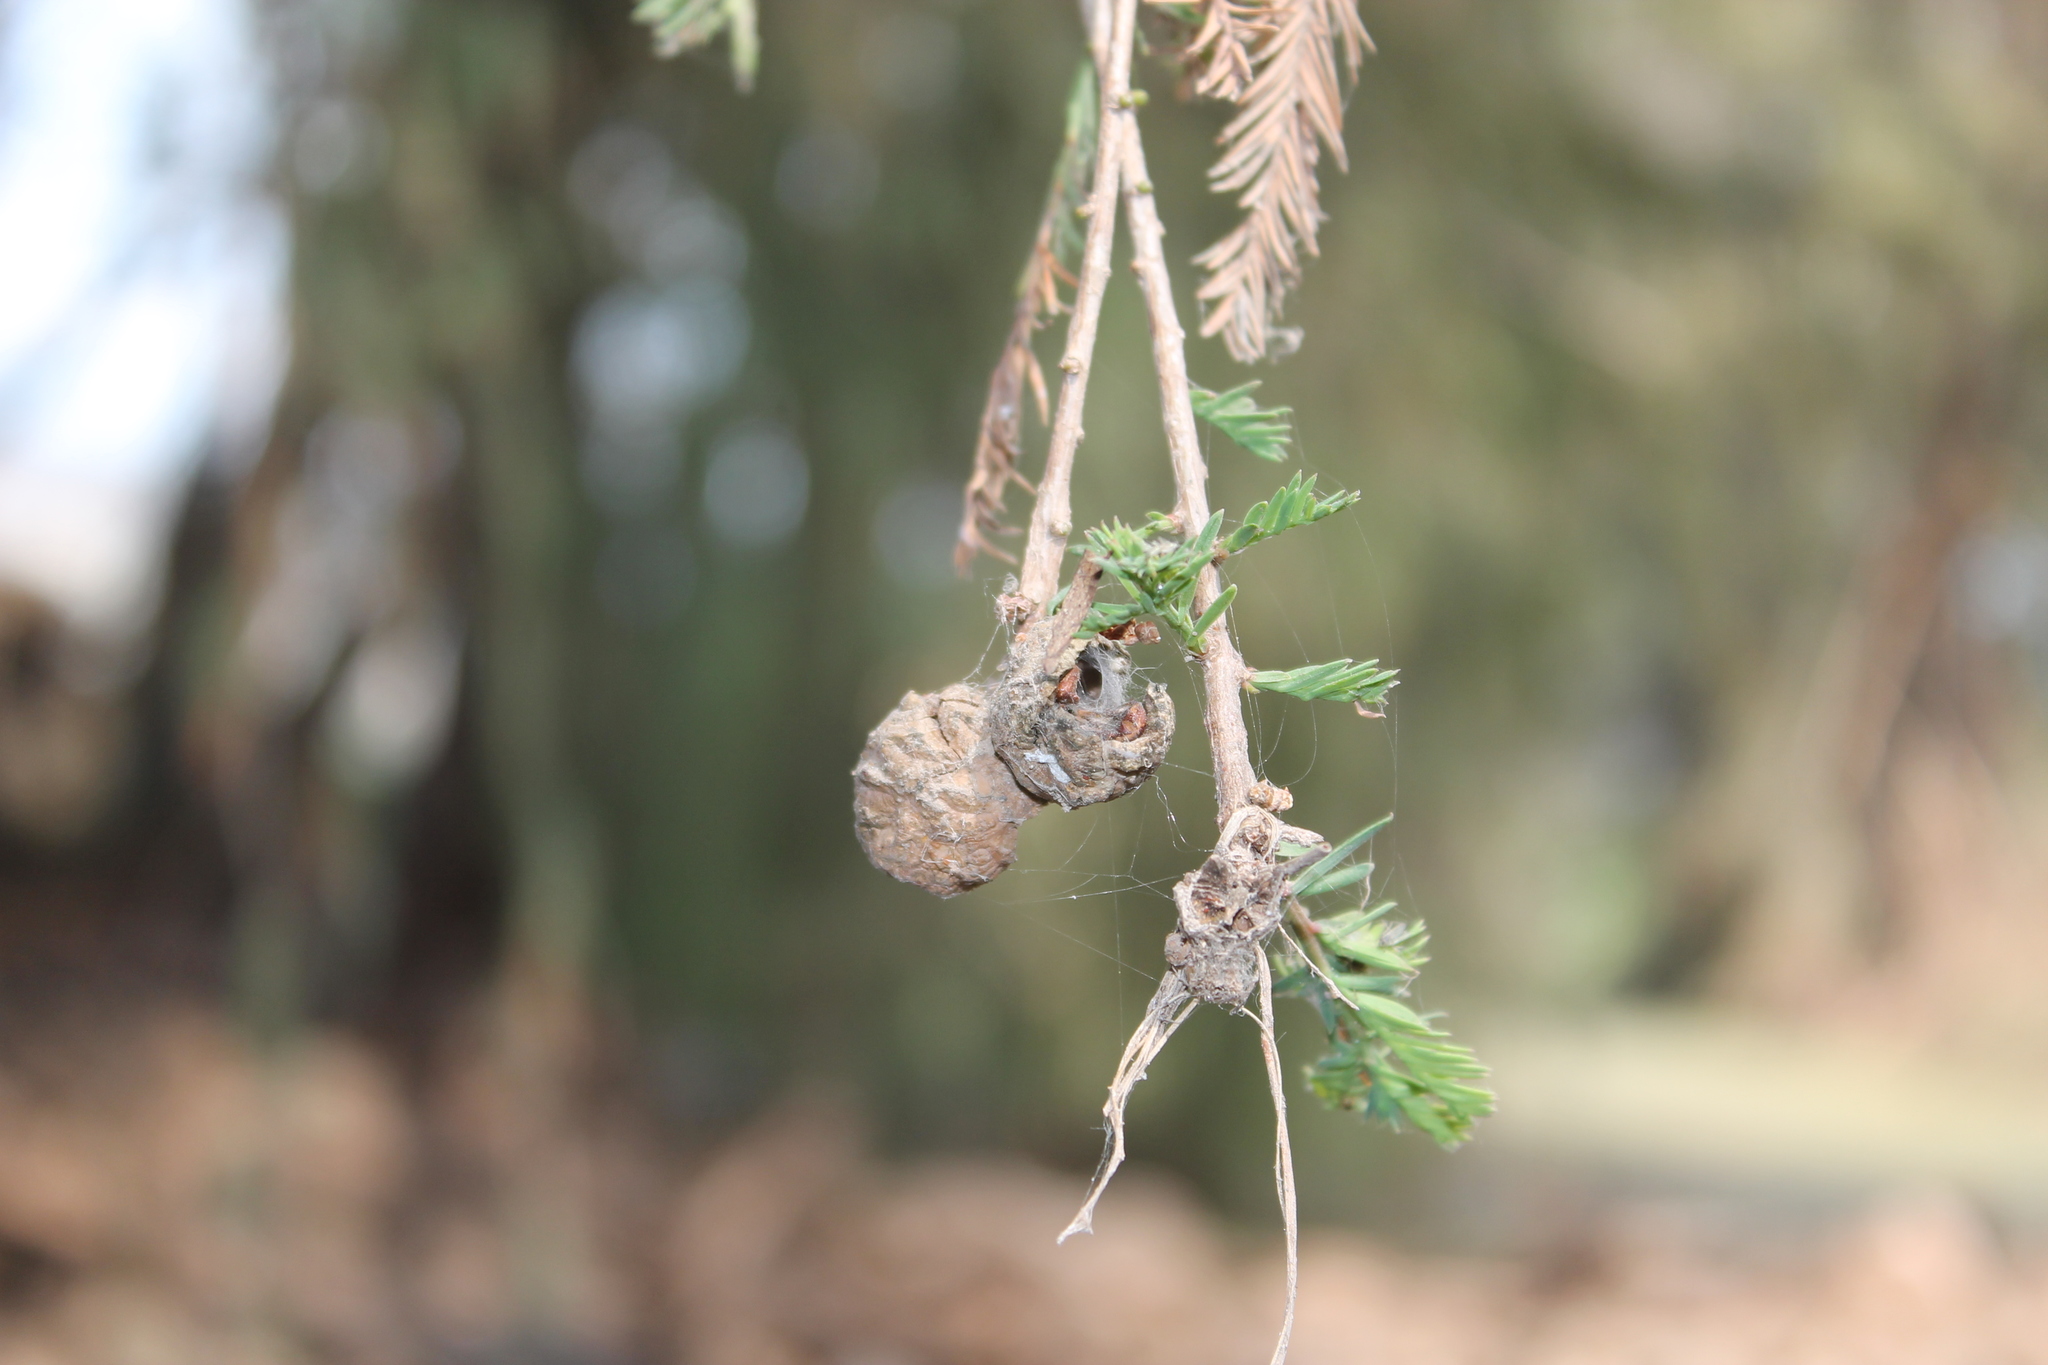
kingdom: Plantae
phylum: Tracheophyta
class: Pinopsida
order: Pinales
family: Cupressaceae
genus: Taxodium
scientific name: Taxodium mucronatum
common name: Montezume bald cypress
